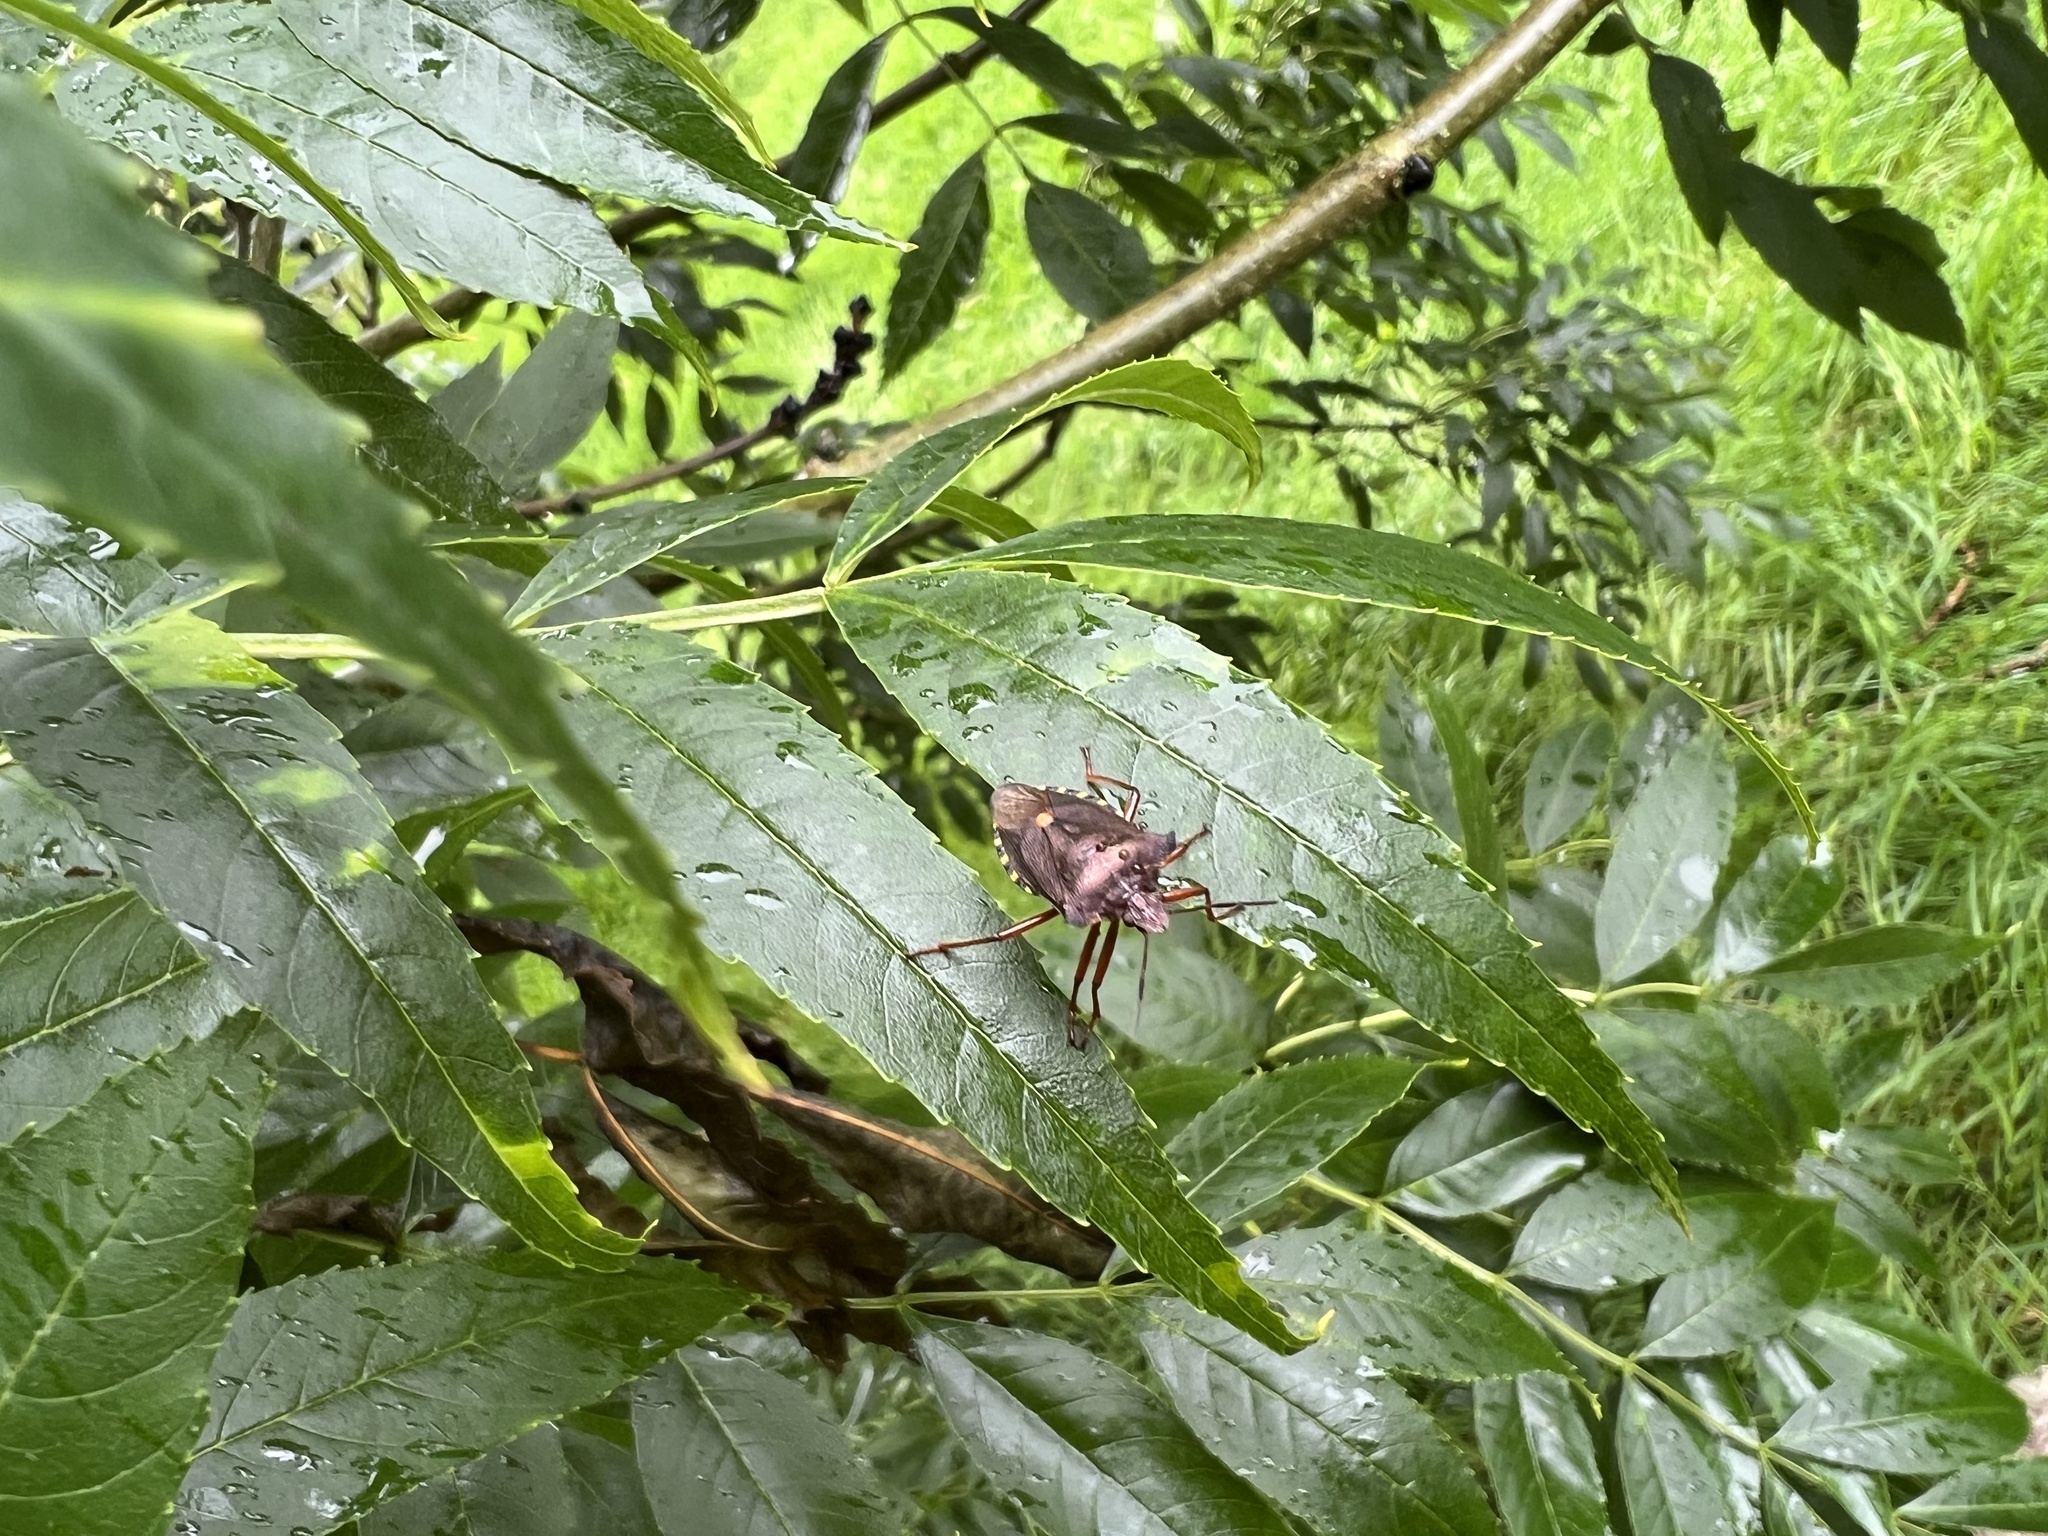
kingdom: Animalia
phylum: Arthropoda
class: Insecta
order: Hemiptera
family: Pentatomidae
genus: Pentatoma
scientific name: Pentatoma rufipes
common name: Forest bug
